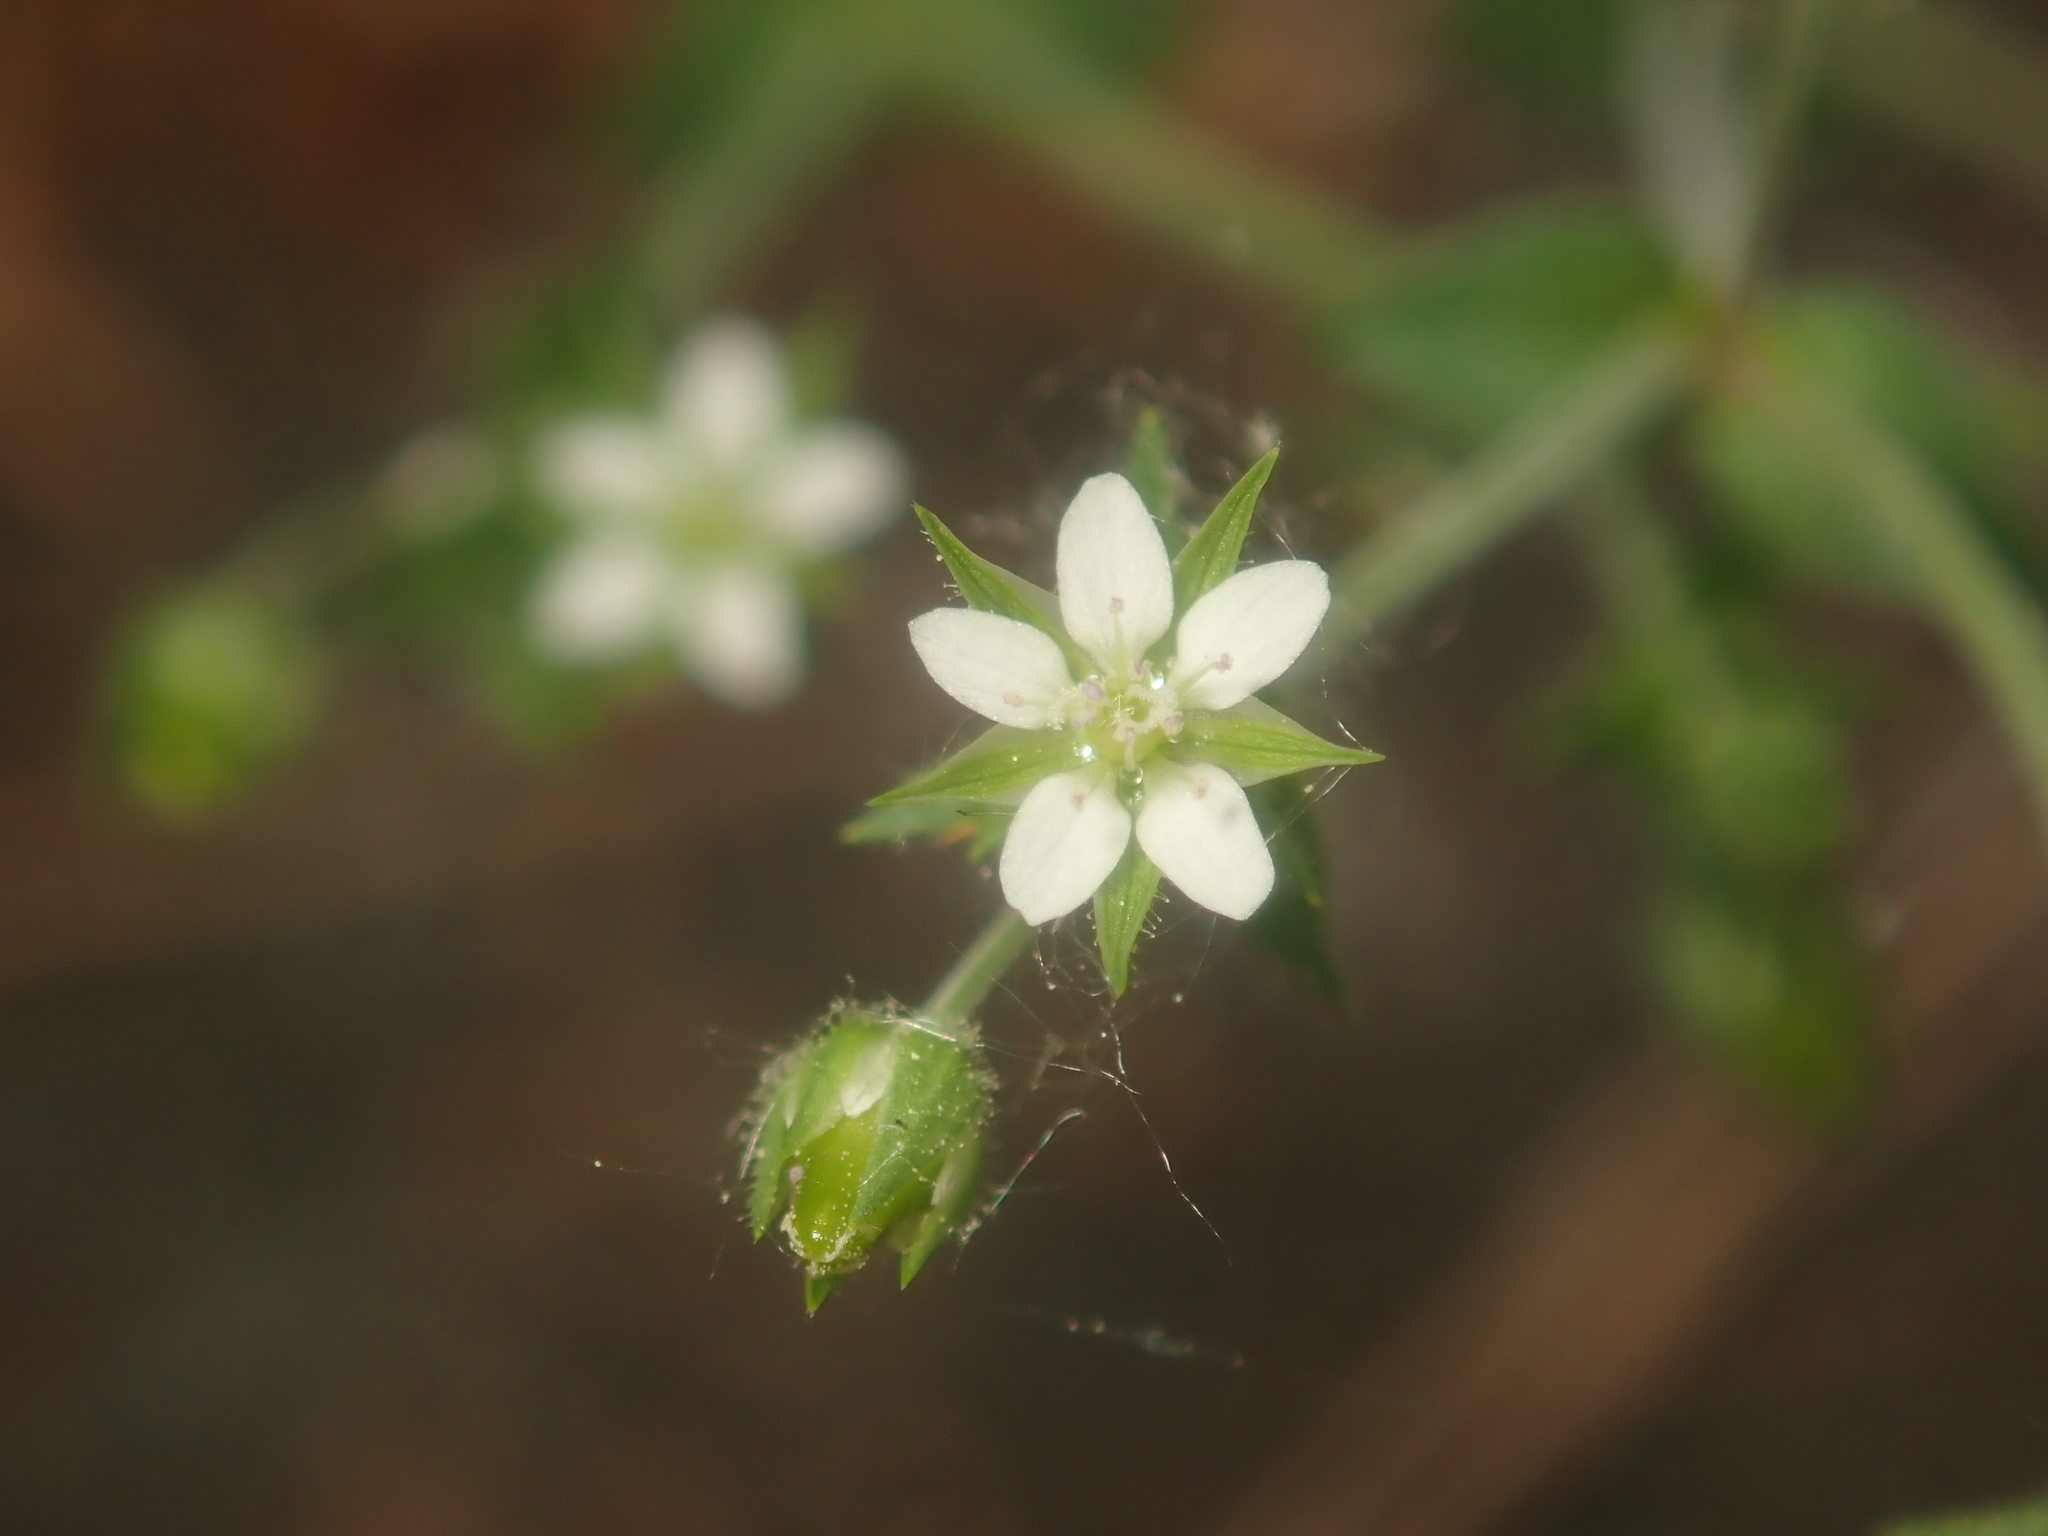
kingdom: Plantae
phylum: Tracheophyta
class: Magnoliopsida
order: Caryophyllales
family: Caryophyllaceae
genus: Arenaria
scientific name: Arenaria serpyllifolia
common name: Thyme-leaved sandwort
